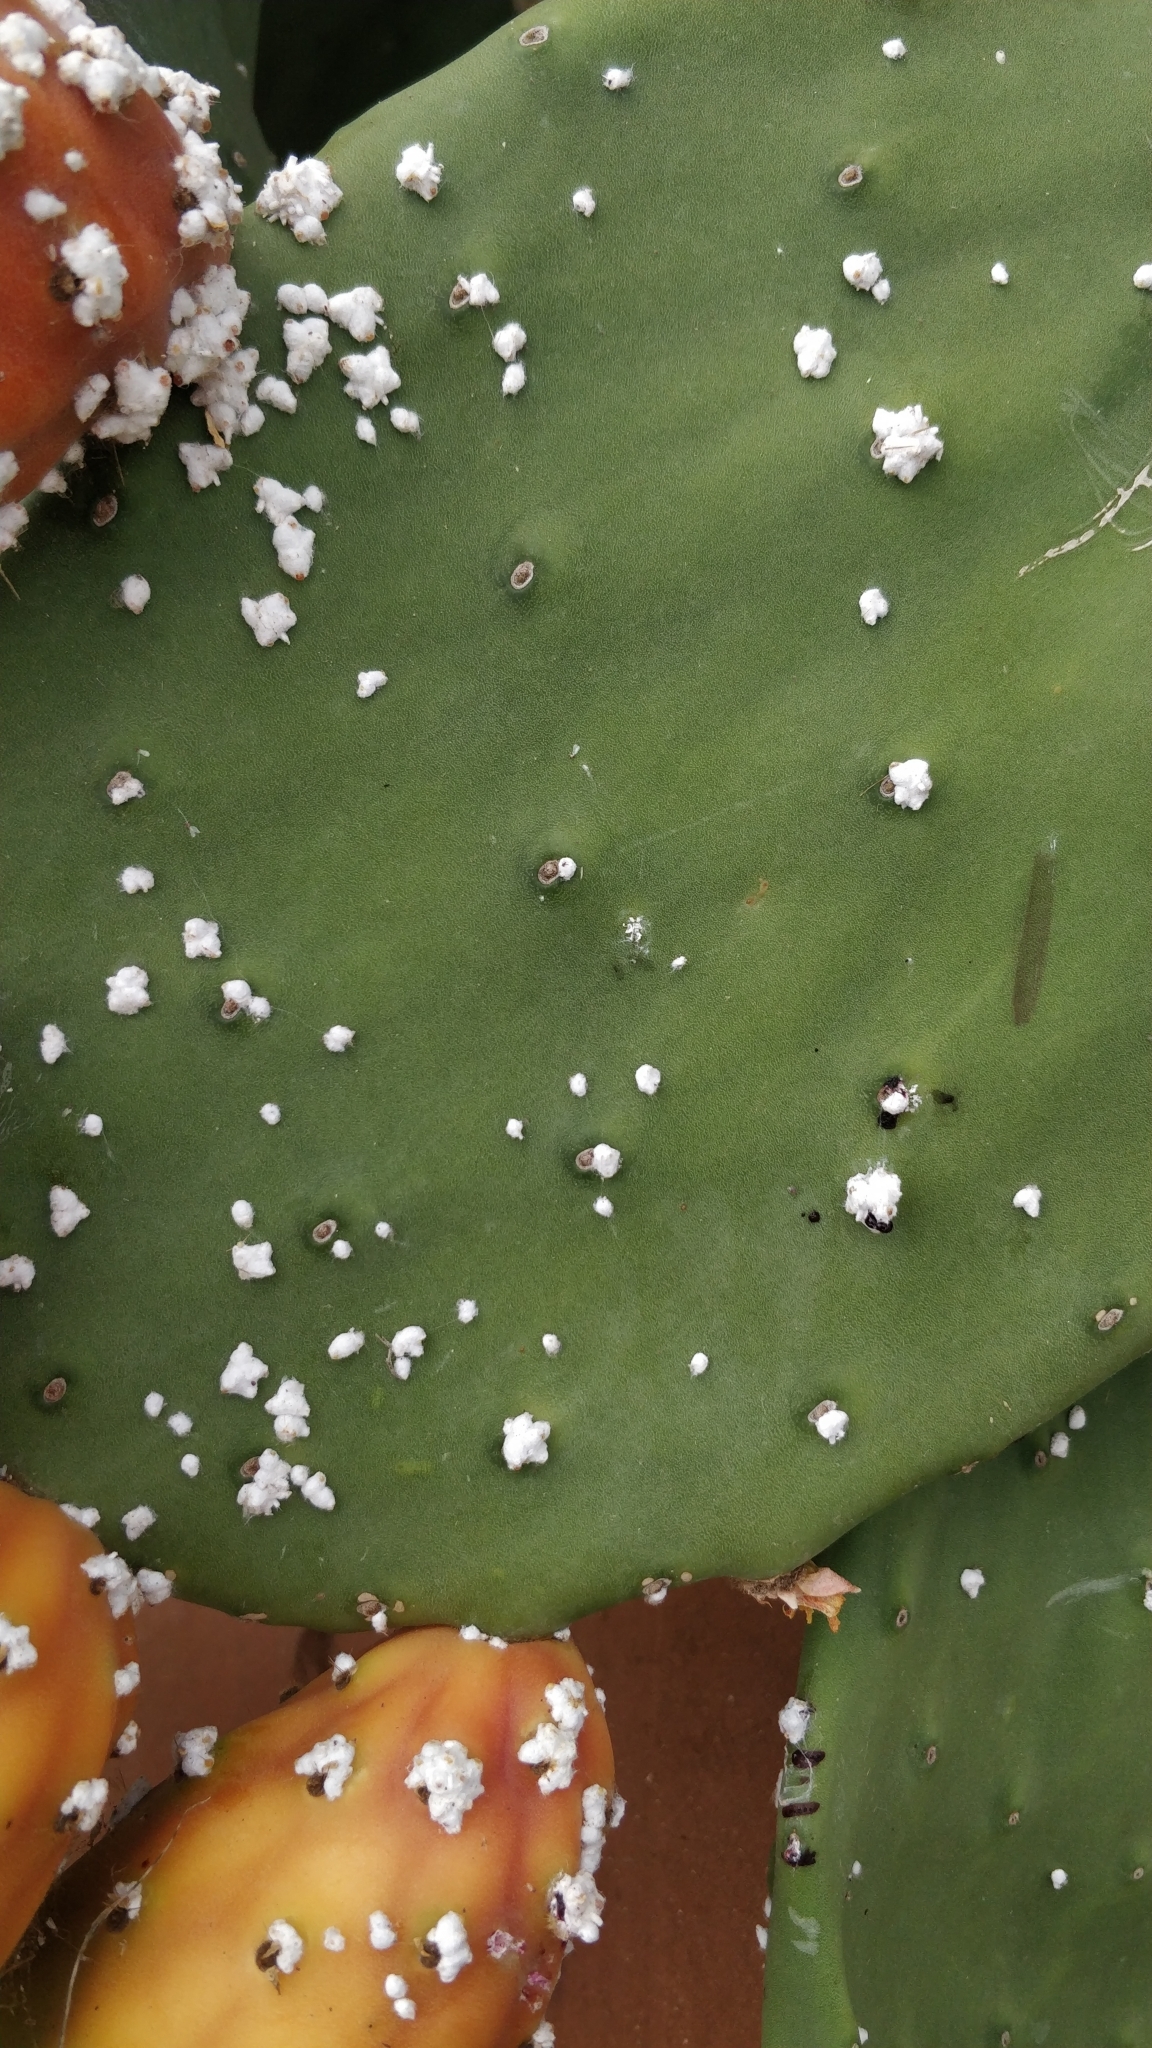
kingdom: Animalia
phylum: Arthropoda
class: Insecta
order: Hemiptera
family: Dactylopiidae
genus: Dactylopius
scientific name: Dactylopius opuntiae
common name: Opuntia cochineal scale
